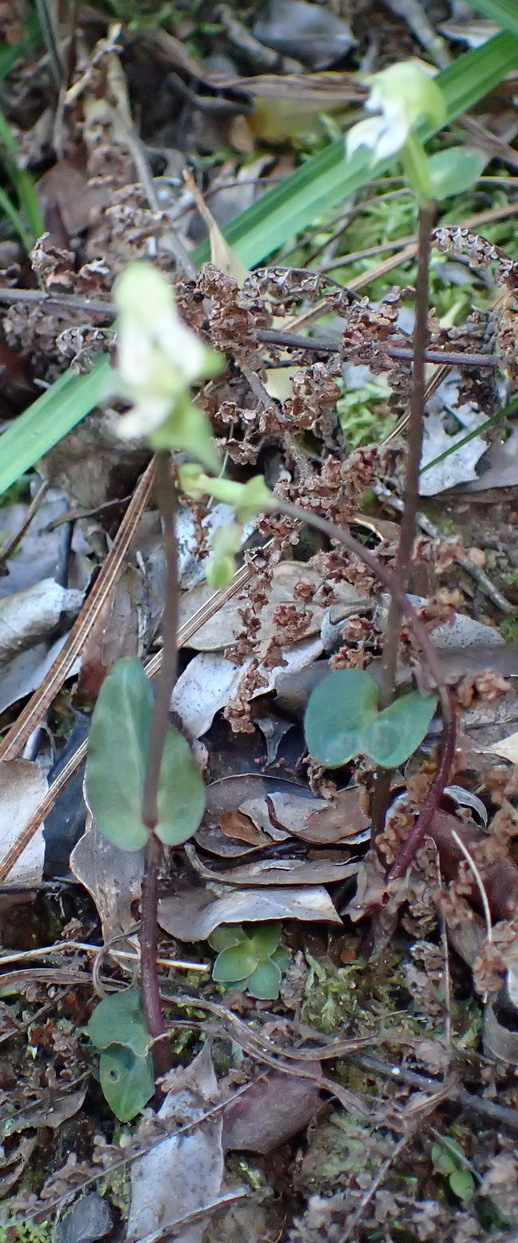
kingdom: Plantae
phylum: Tracheophyta
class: Liliopsida
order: Asparagales
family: Orchidaceae
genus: Disperis
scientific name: Disperis disiformis
